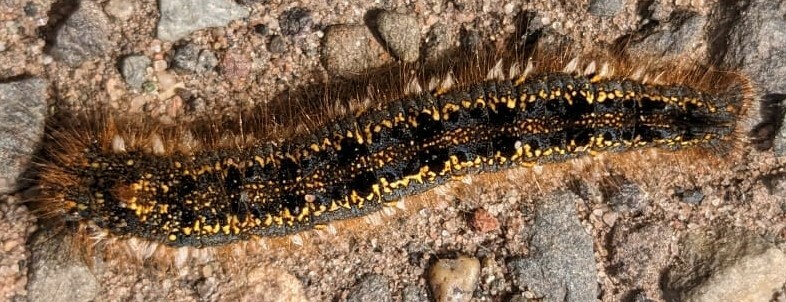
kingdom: Animalia
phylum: Arthropoda
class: Insecta
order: Lepidoptera
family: Lasiocampidae
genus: Euthrix
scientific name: Euthrix potatoria
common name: Drinker
